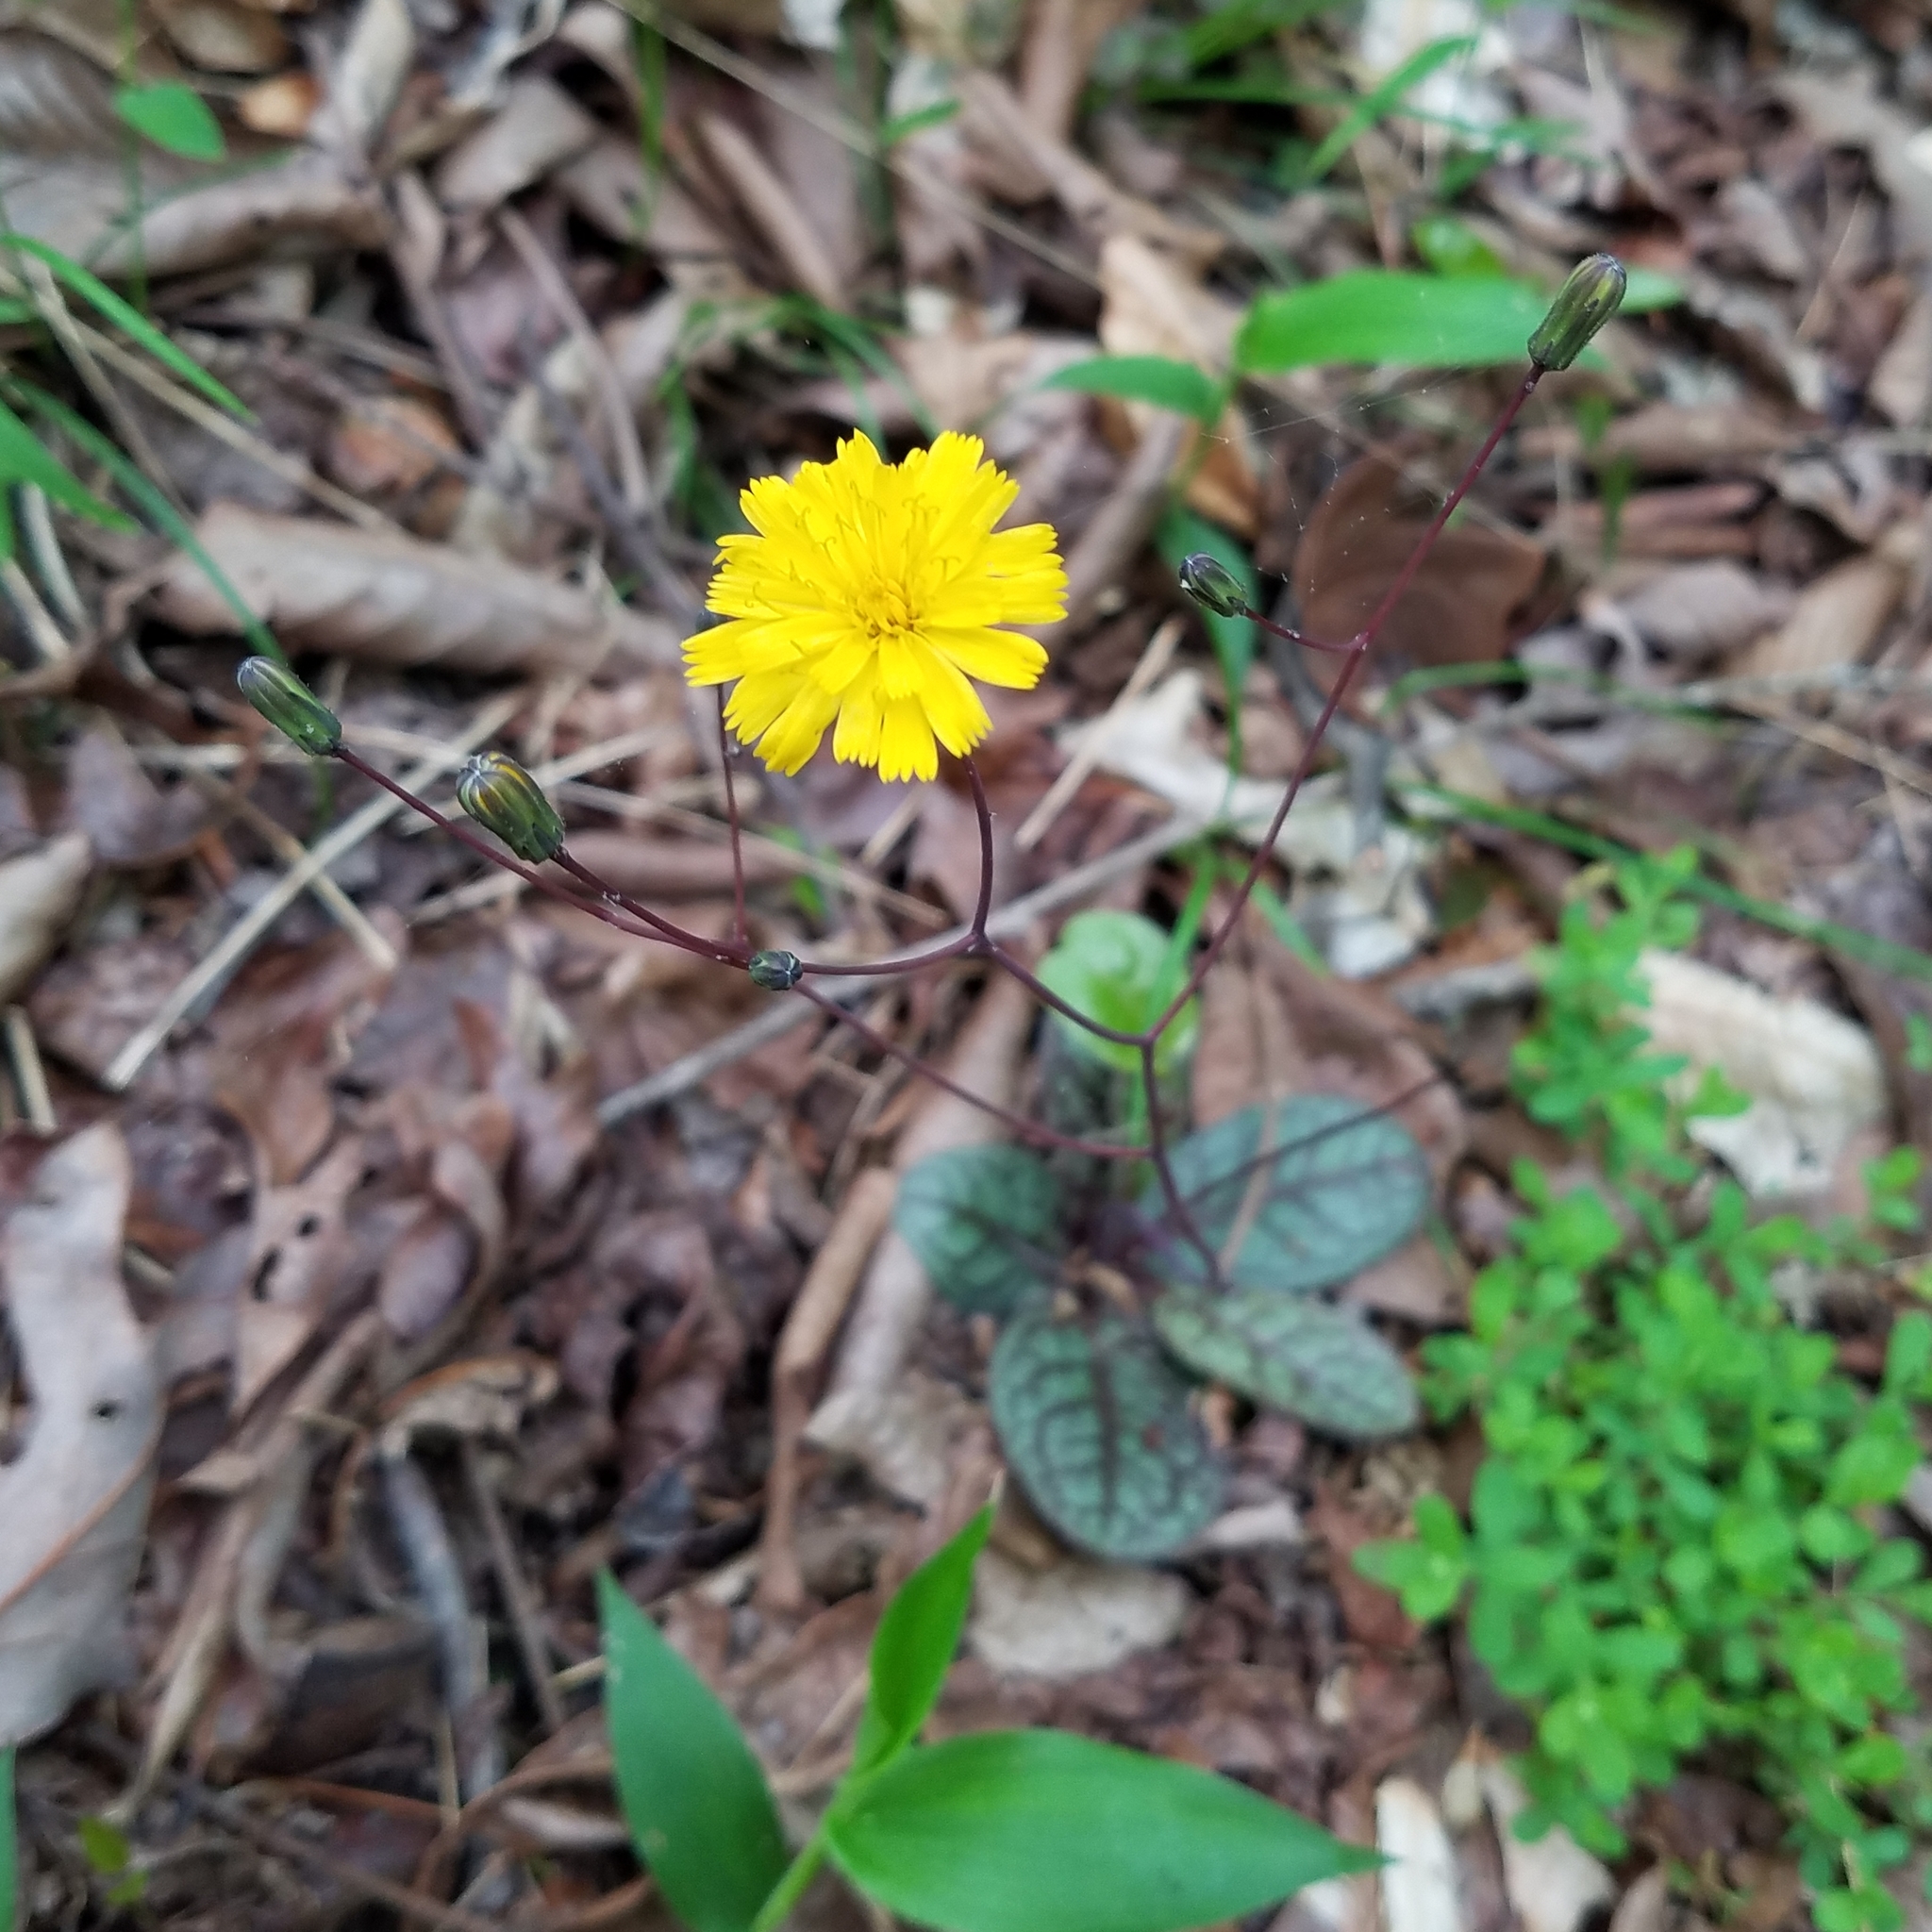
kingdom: Plantae
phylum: Tracheophyta
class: Magnoliopsida
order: Asterales
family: Asteraceae
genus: Hieracium
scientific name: Hieracium venosum
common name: Rattlesnake hawkweed
